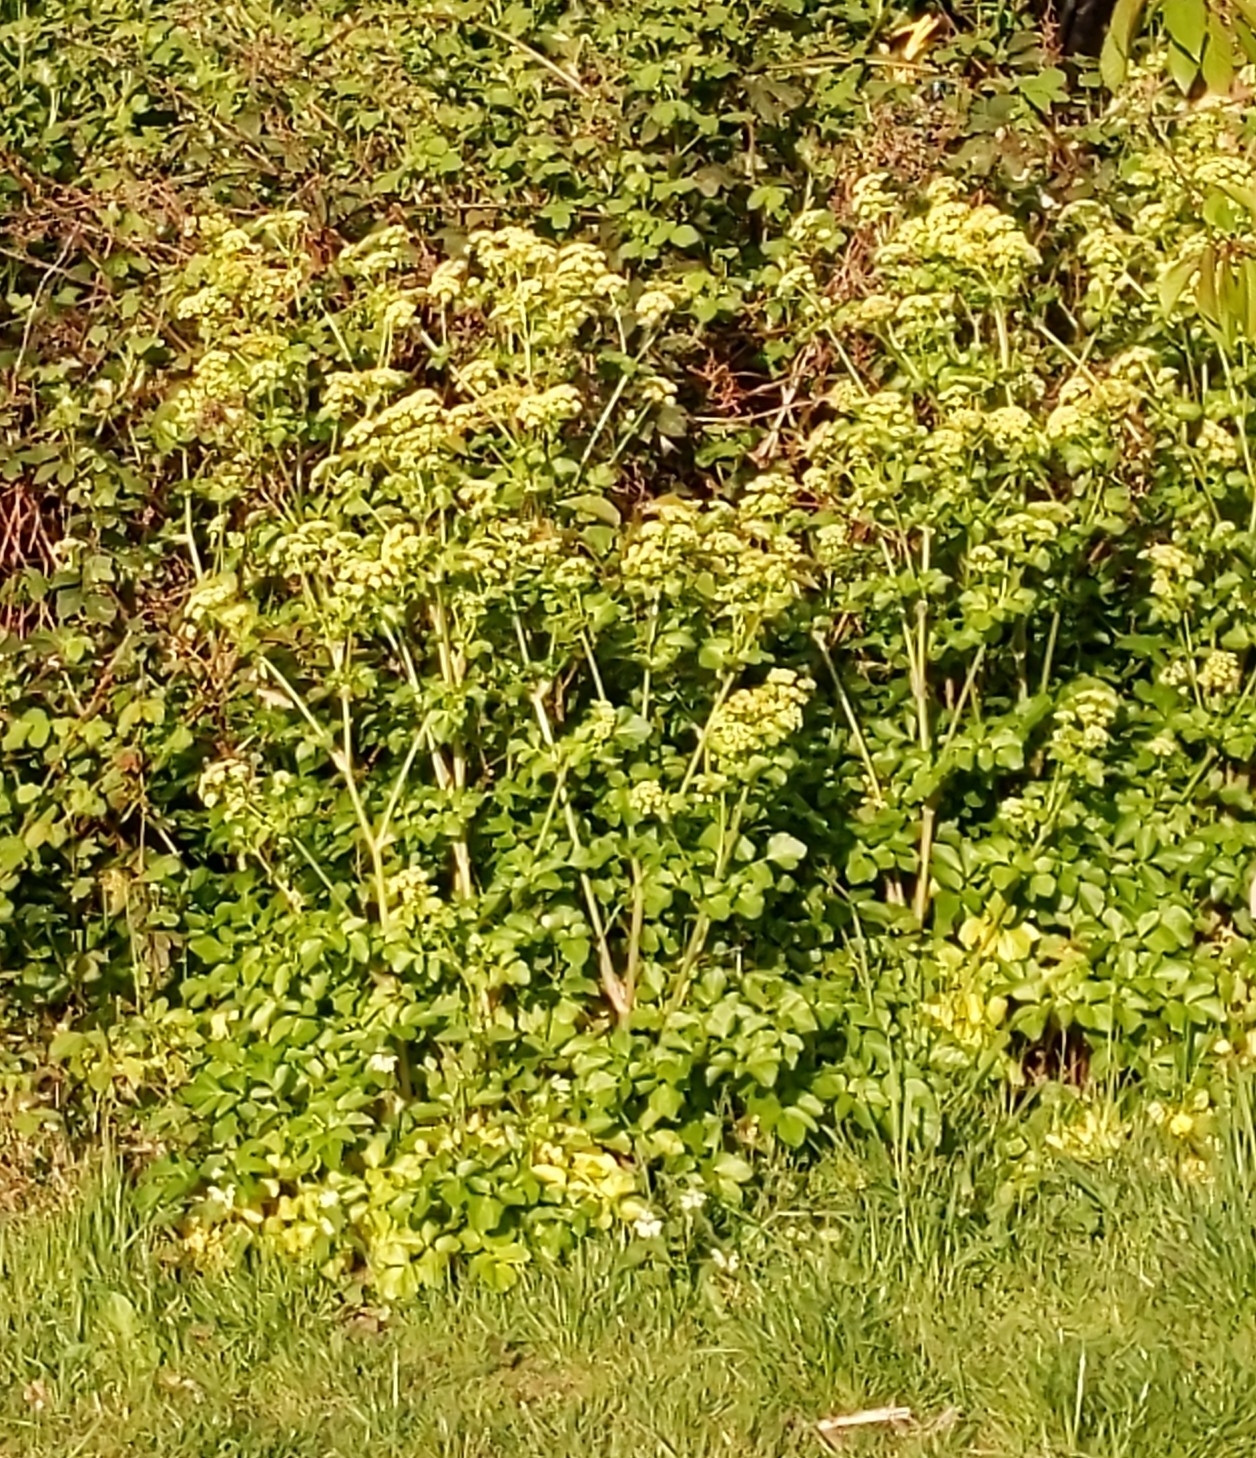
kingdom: Plantae
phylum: Tracheophyta
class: Magnoliopsida
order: Apiales
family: Apiaceae
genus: Smyrnium
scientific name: Smyrnium olusatrum
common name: Alexanders
